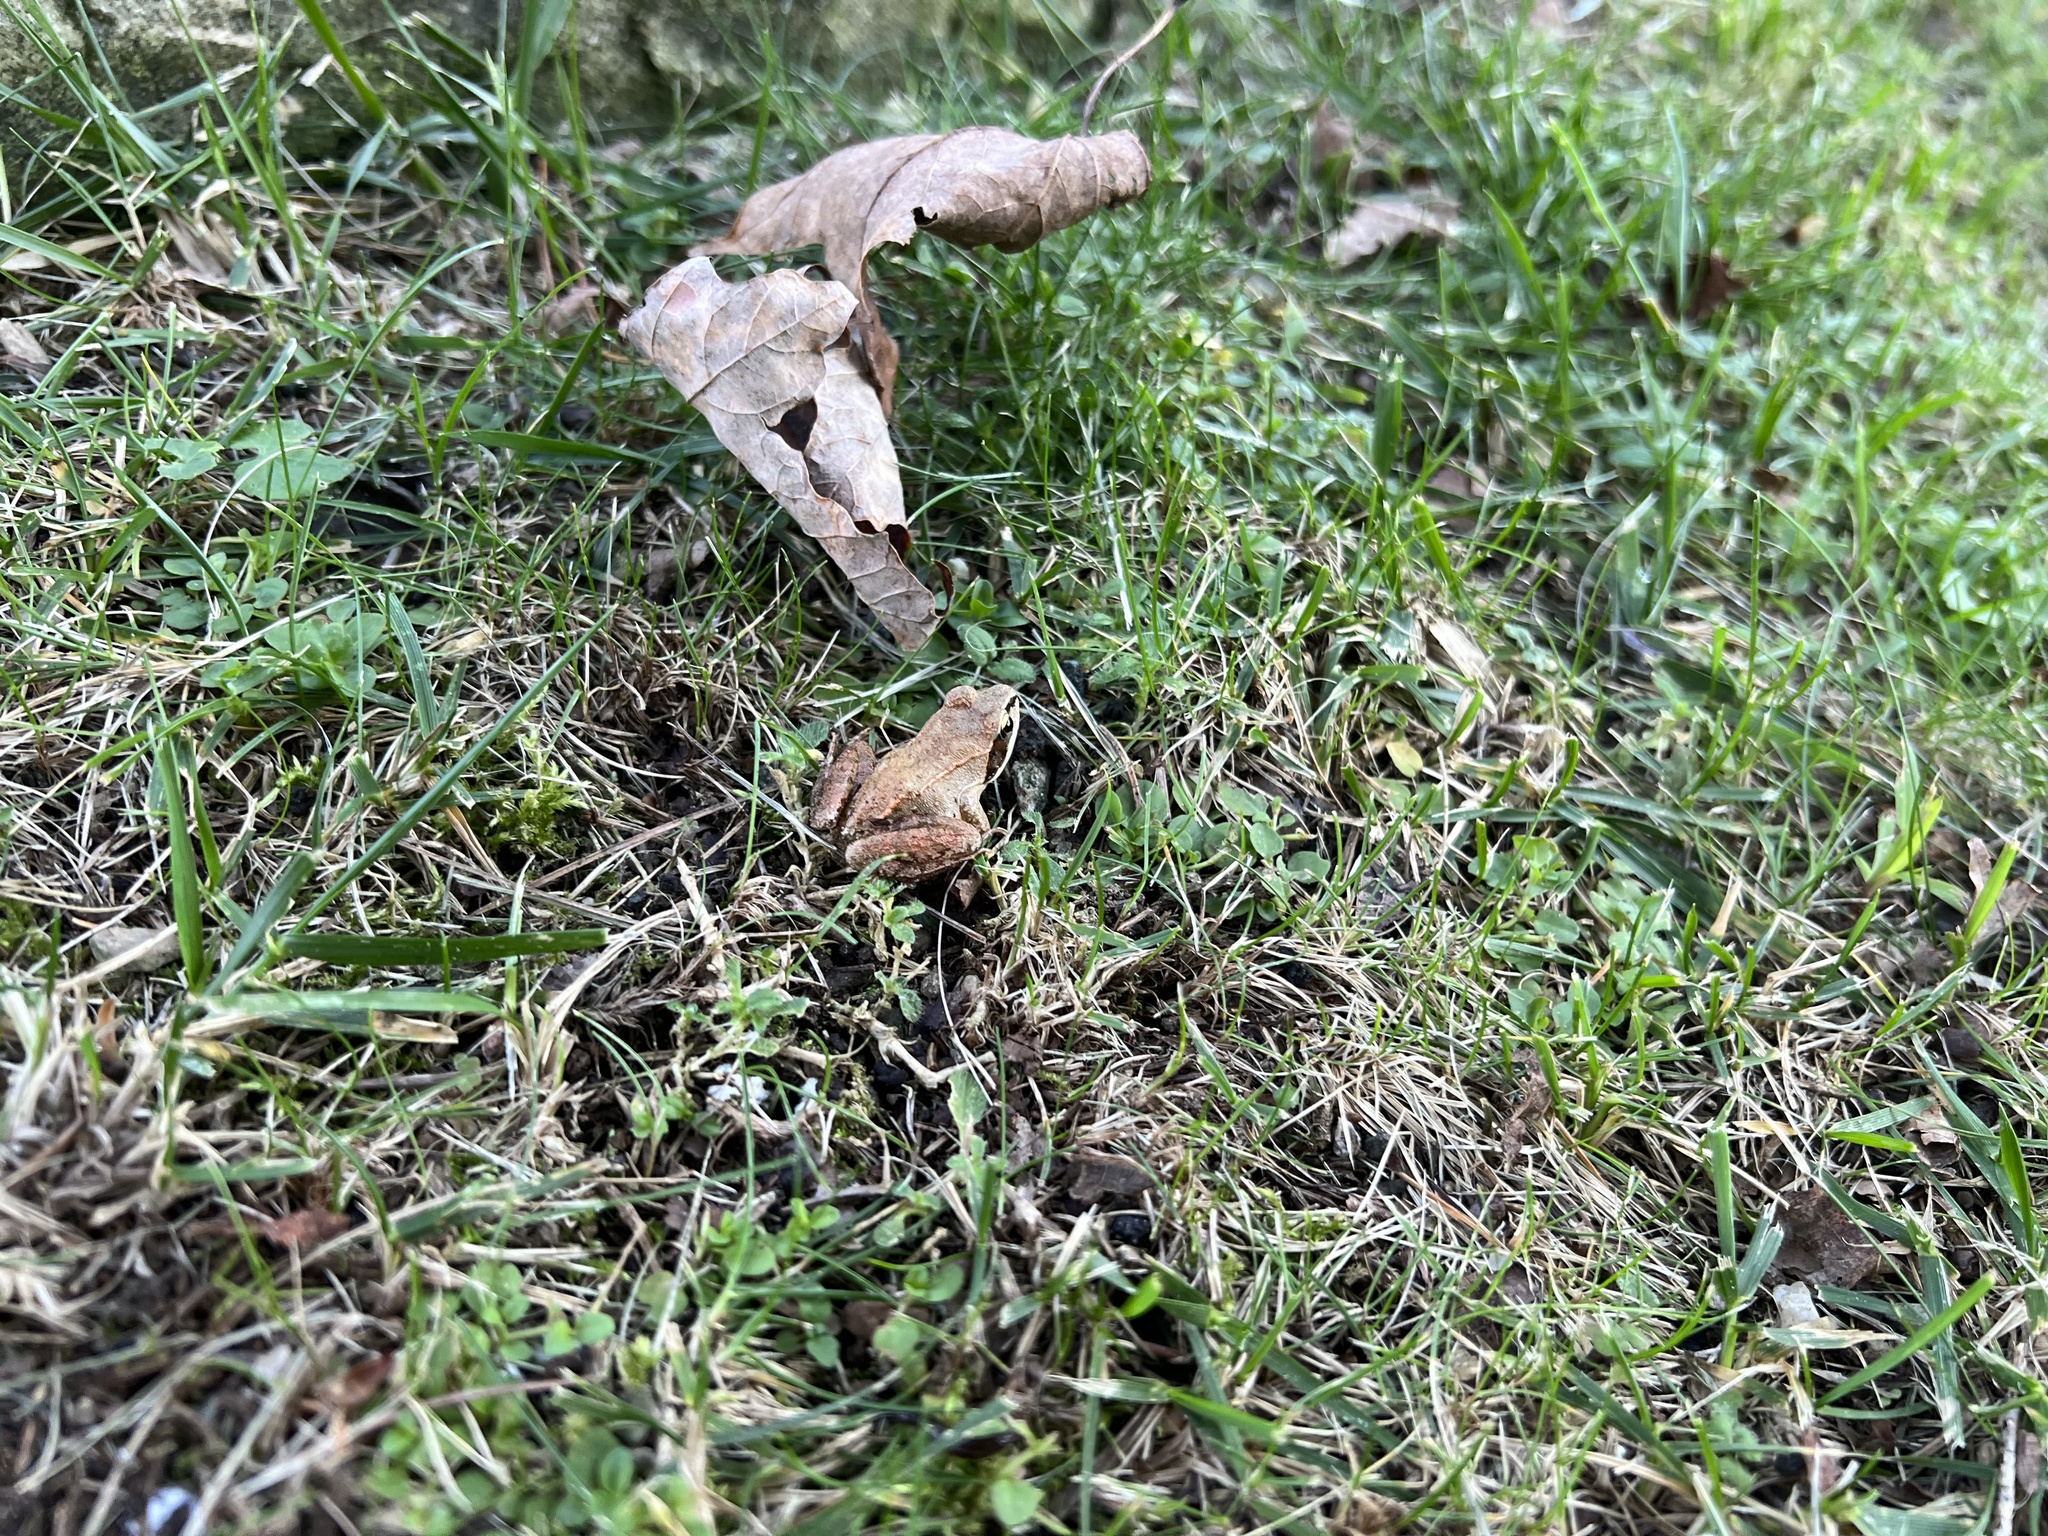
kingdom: Animalia
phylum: Chordata
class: Amphibia
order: Anura
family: Ranidae
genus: Lithobates
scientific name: Lithobates sylvaticus
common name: Wood frog
